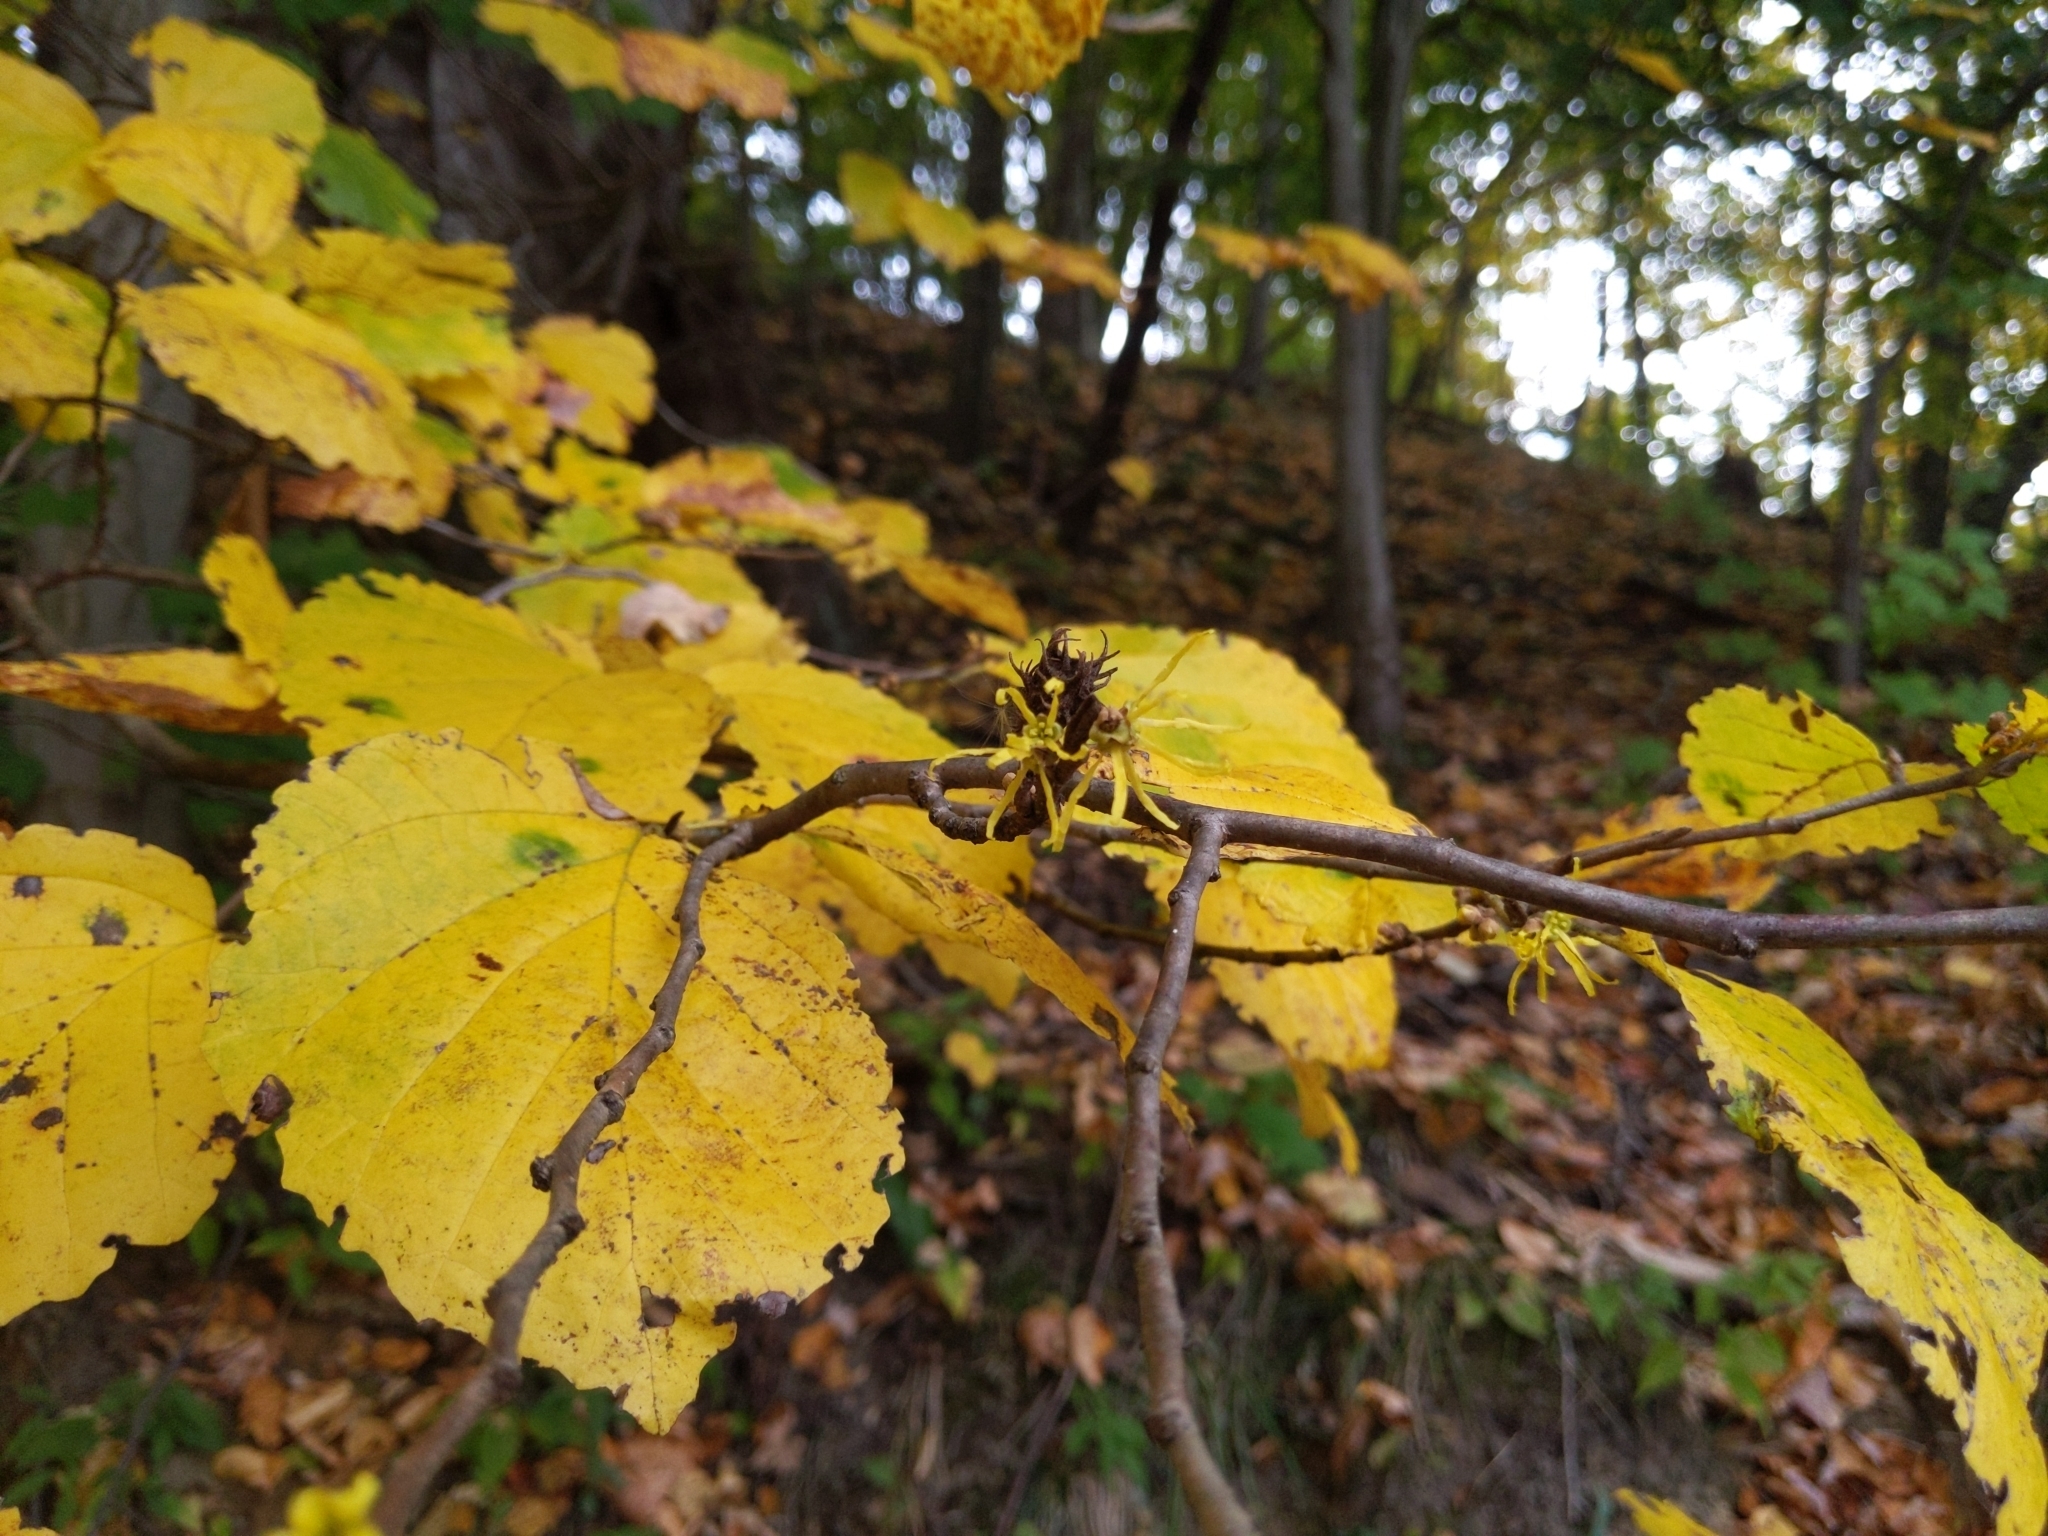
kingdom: Plantae
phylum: Tracheophyta
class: Magnoliopsida
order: Saxifragales
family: Hamamelidaceae
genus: Hamamelis
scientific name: Hamamelis virginiana
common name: Witch-hazel
